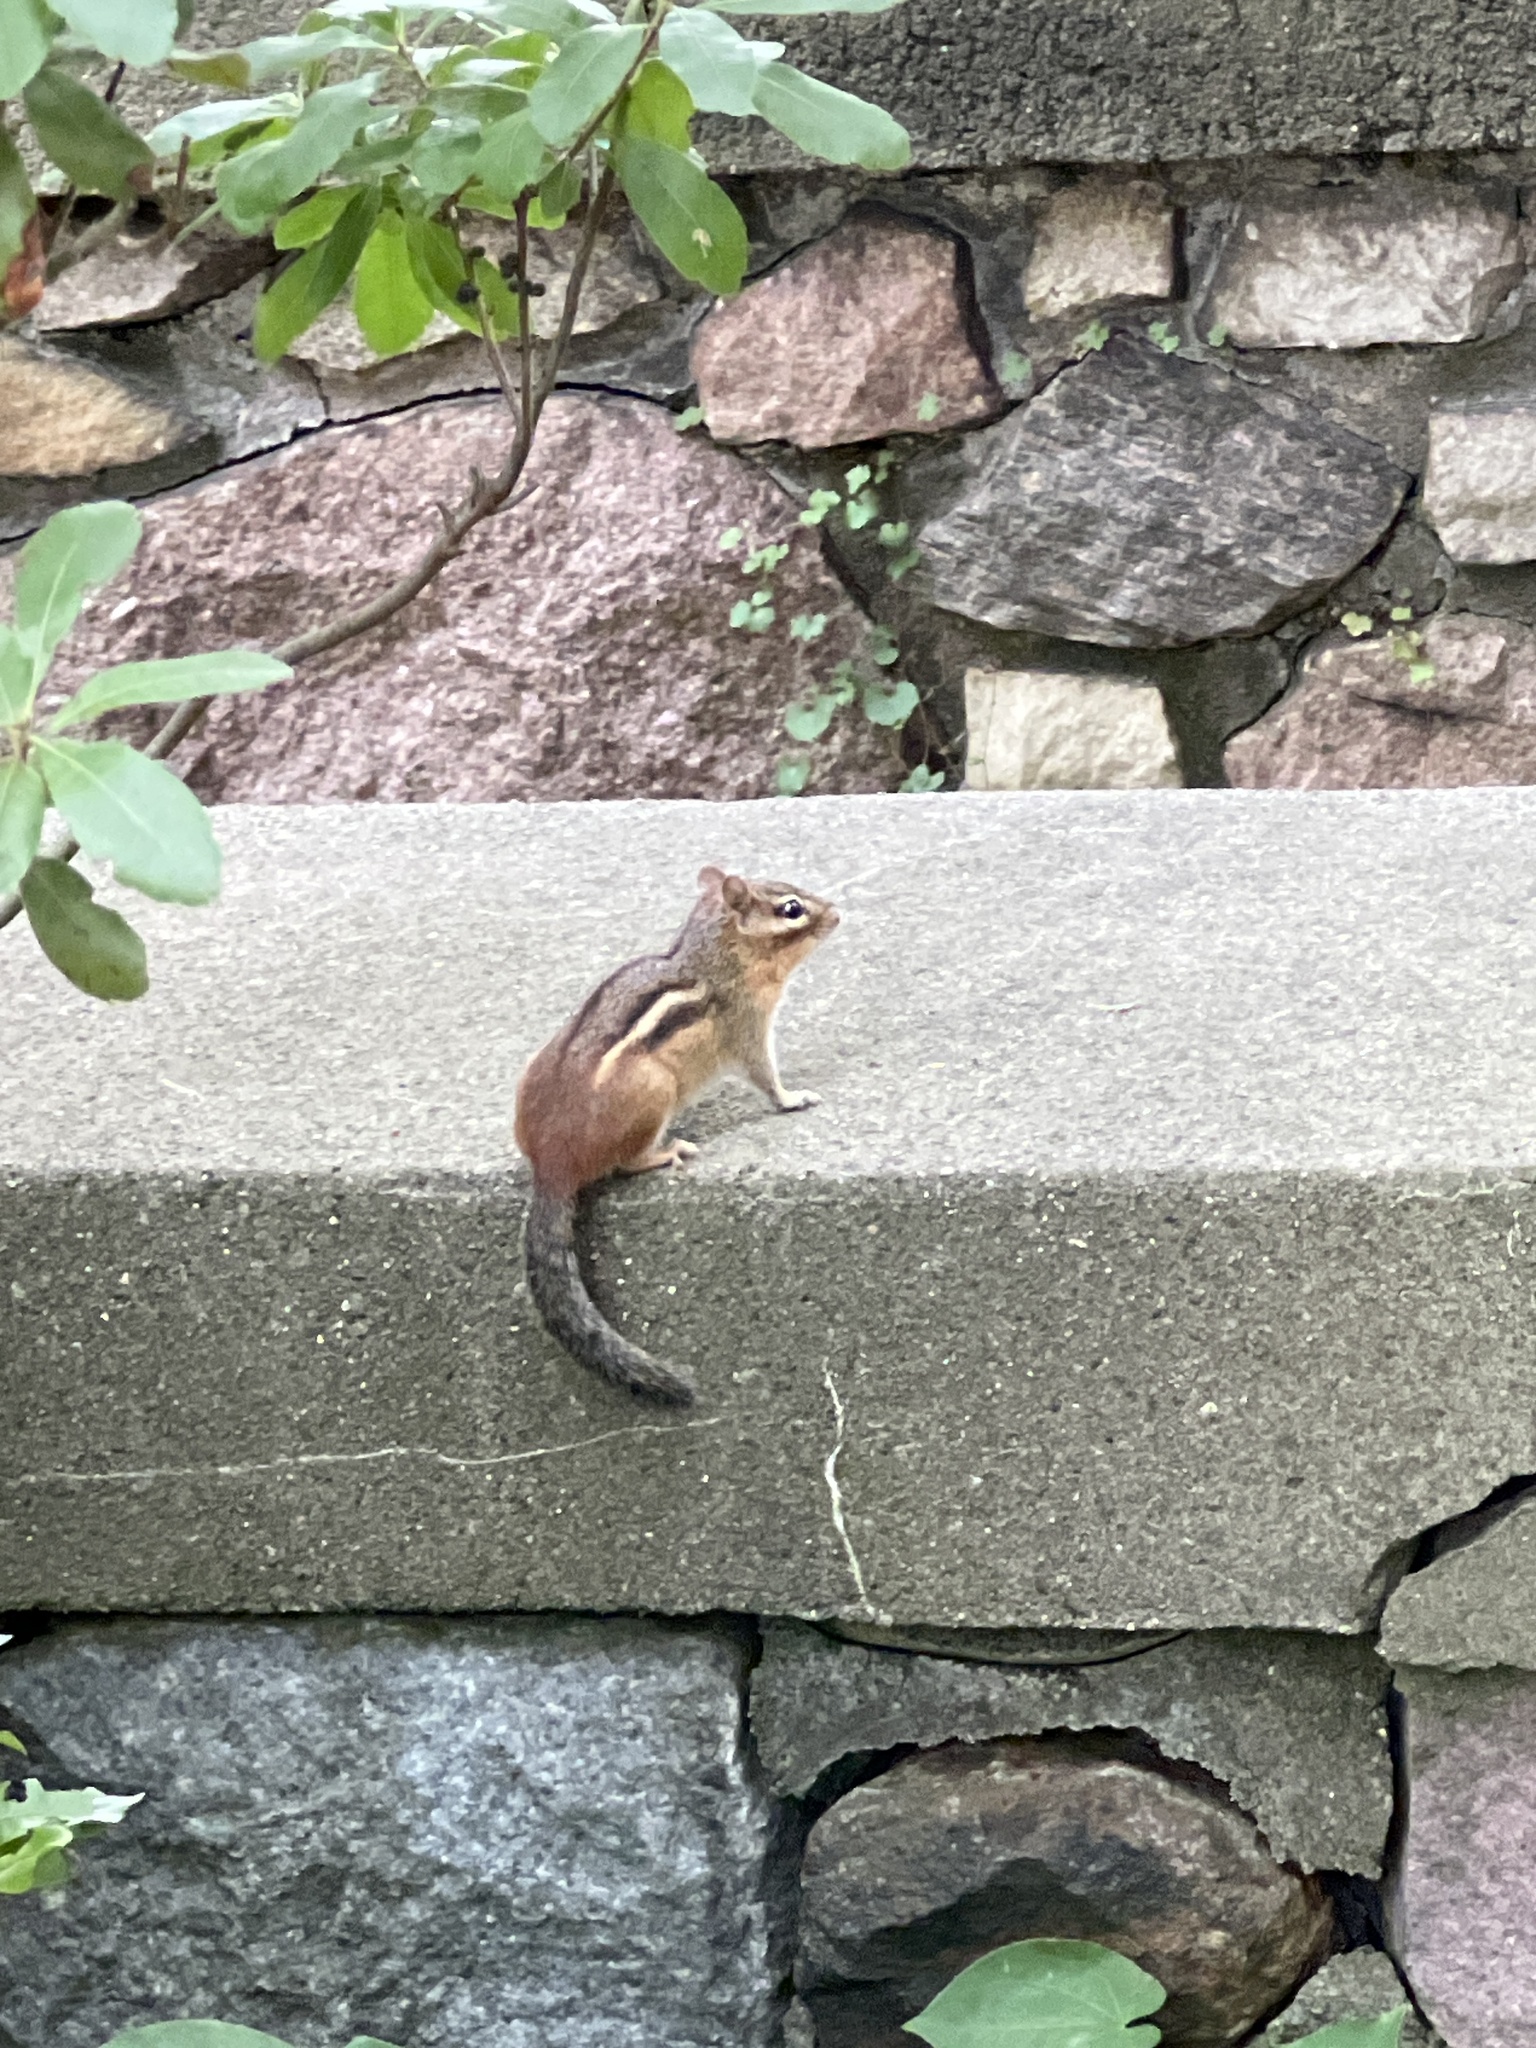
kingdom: Animalia
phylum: Chordata
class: Mammalia
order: Rodentia
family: Sciuridae
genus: Tamias
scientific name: Tamias striatus
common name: Eastern chipmunk
